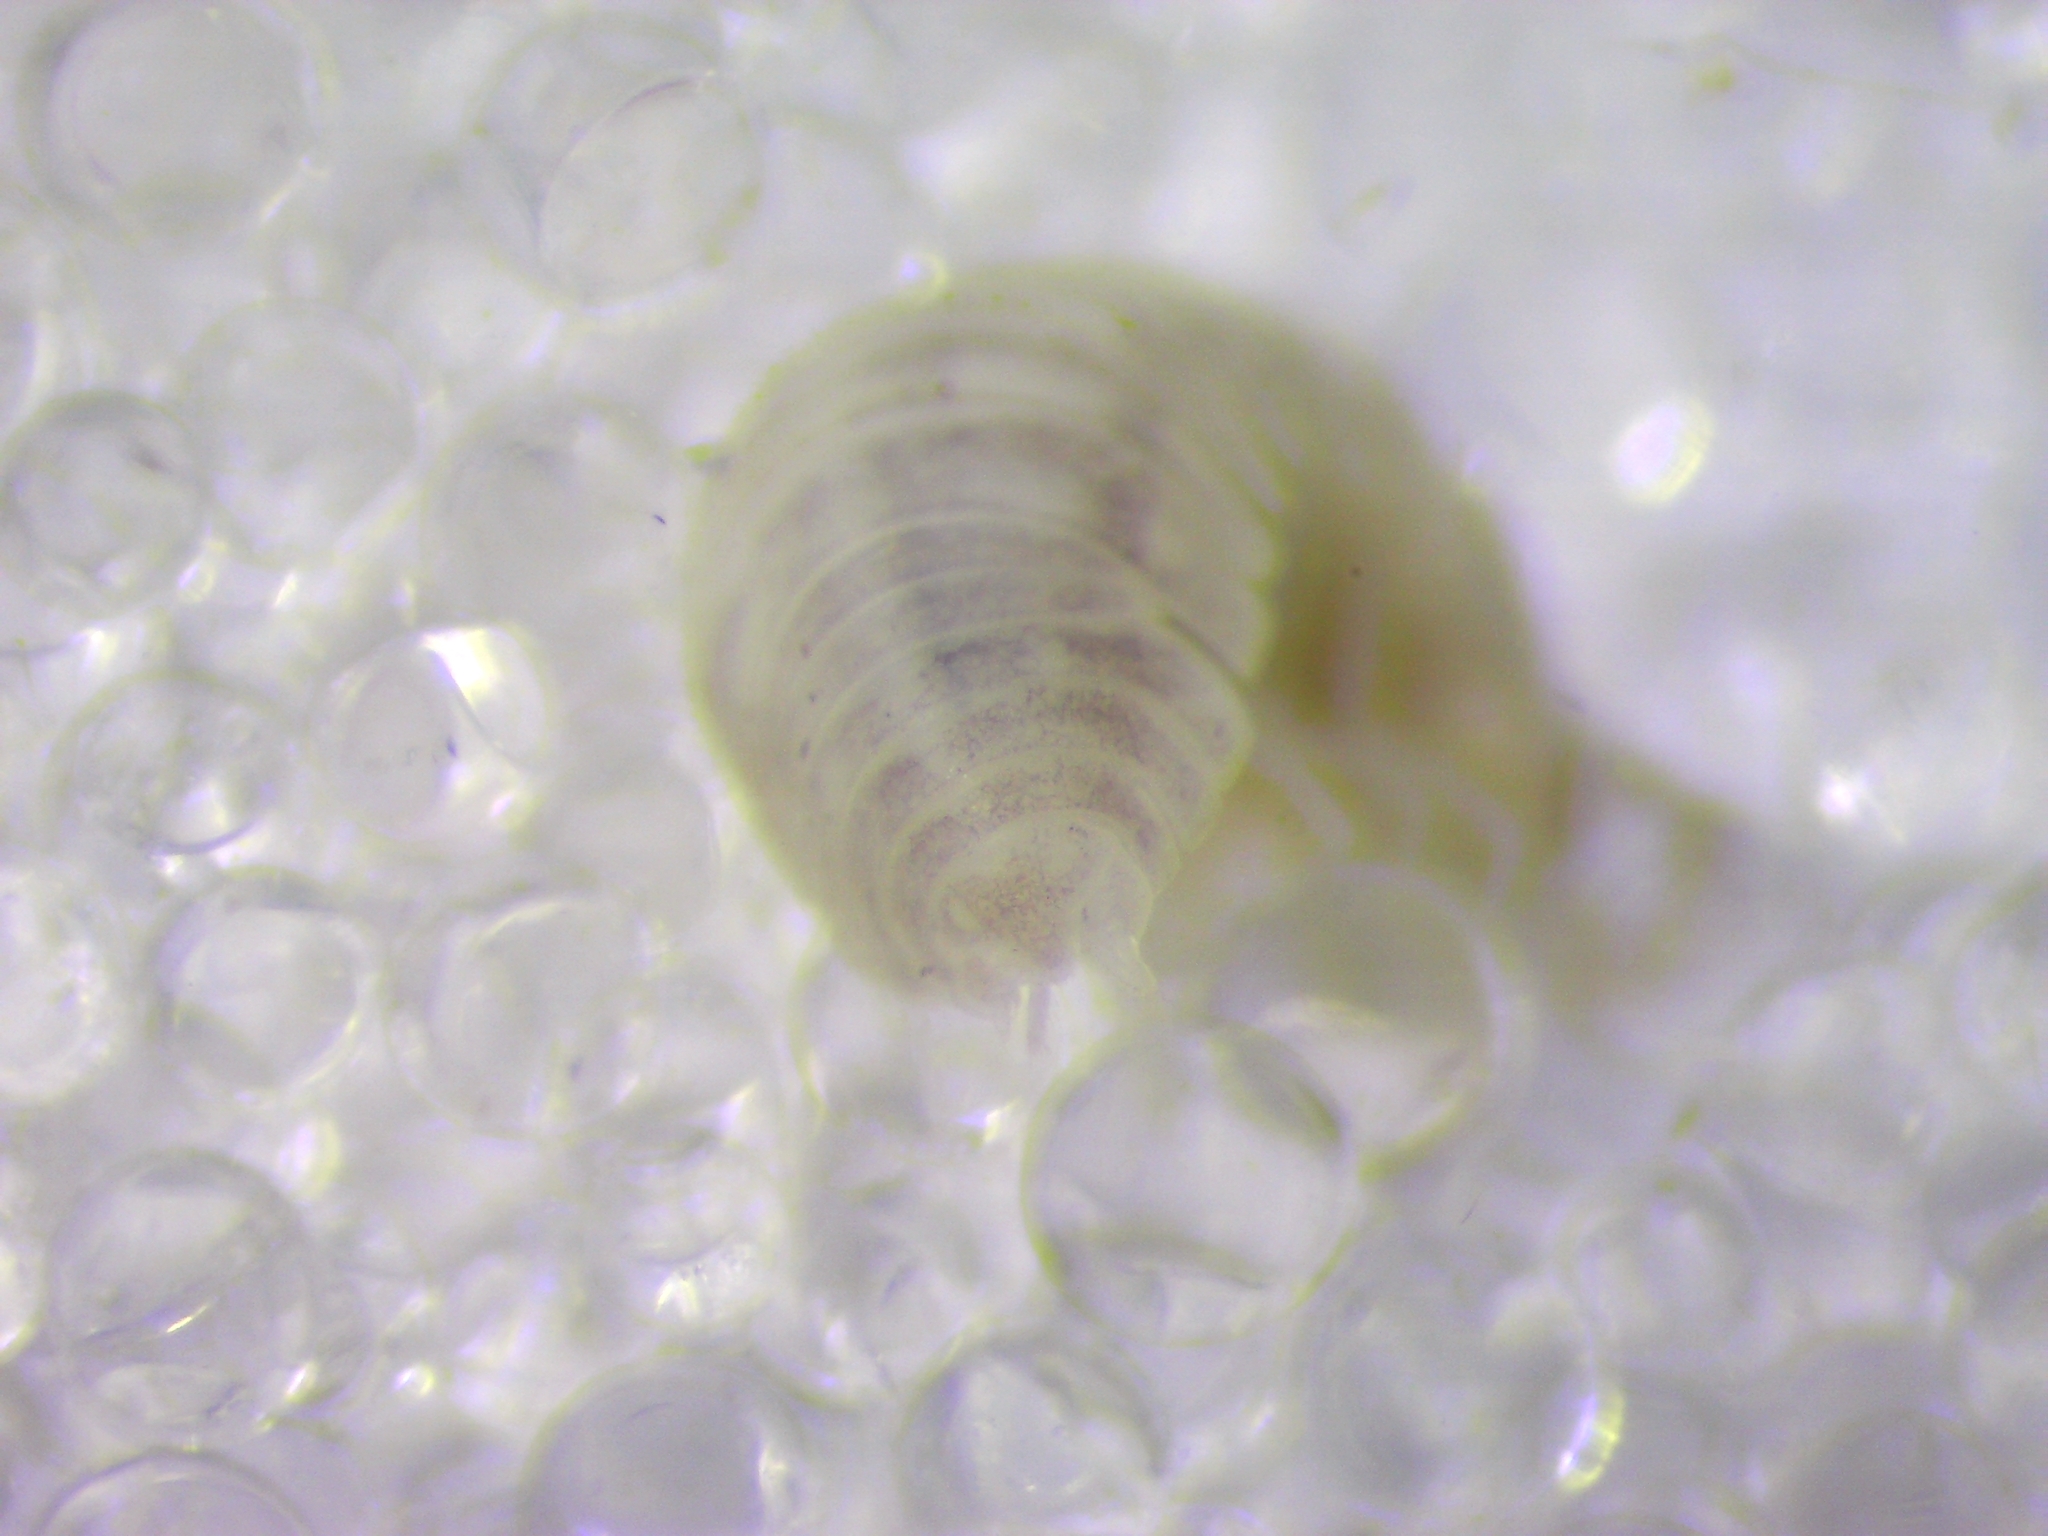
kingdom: Animalia
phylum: Arthropoda
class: Malacostraca
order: Isopoda
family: Scleropactidae
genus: Sphaerobathytropa
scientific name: Sphaerobathytropa ribauti
